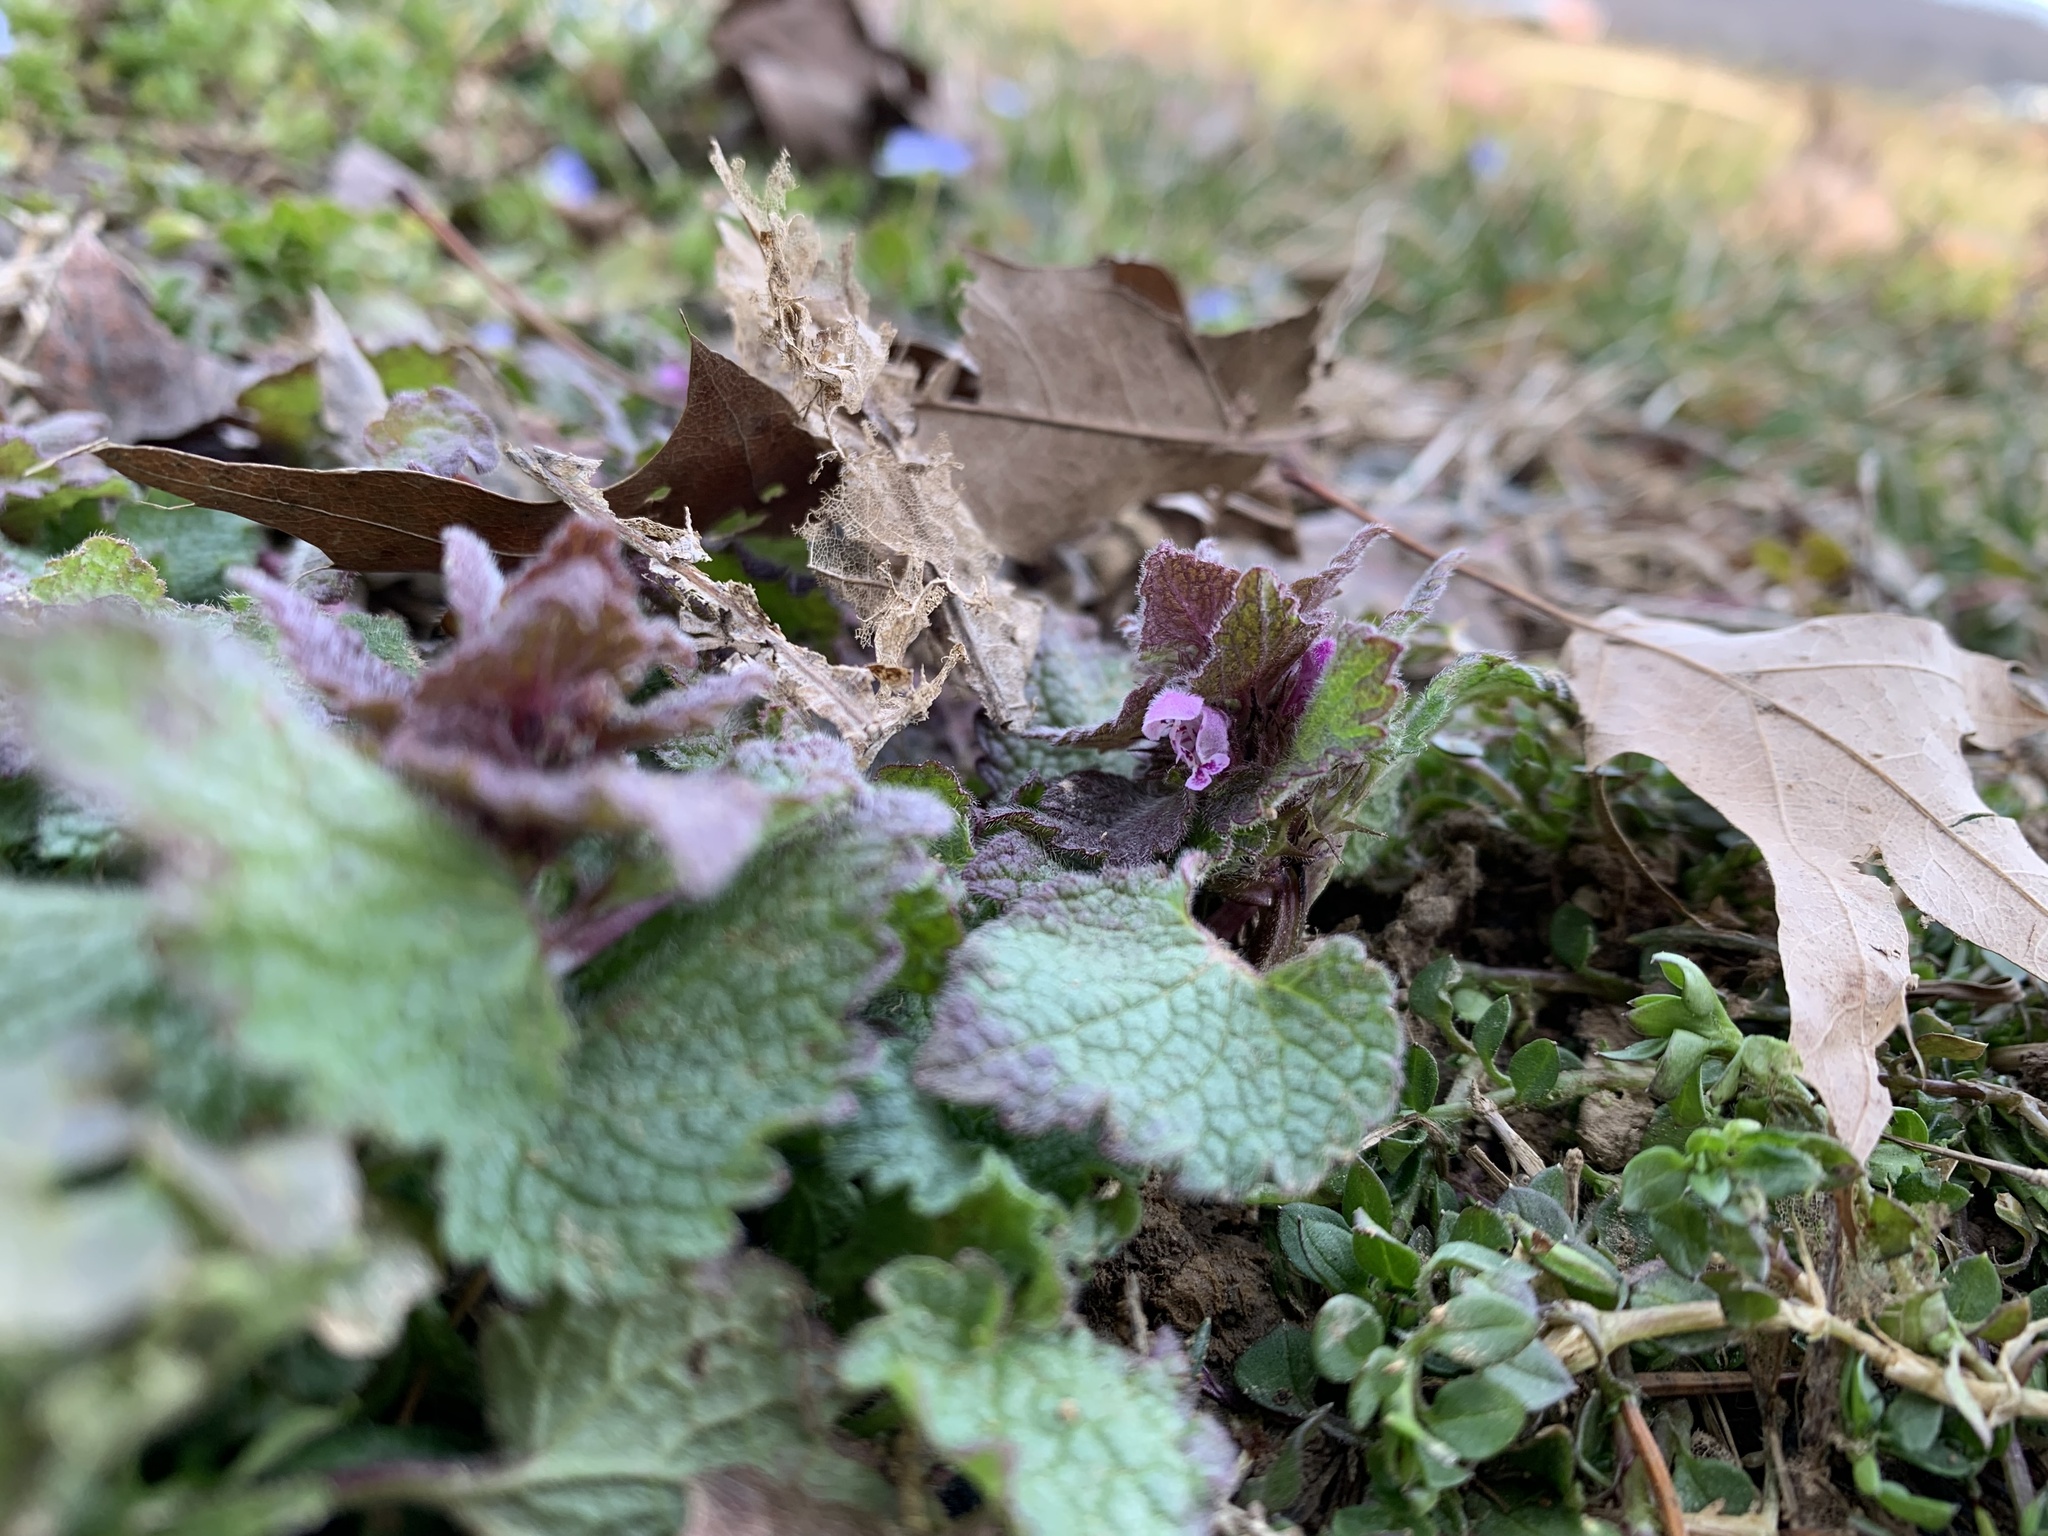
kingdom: Plantae
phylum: Tracheophyta
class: Magnoliopsida
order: Lamiales
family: Lamiaceae
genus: Lamium
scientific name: Lamium purpureum
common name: Red dead-nettle
